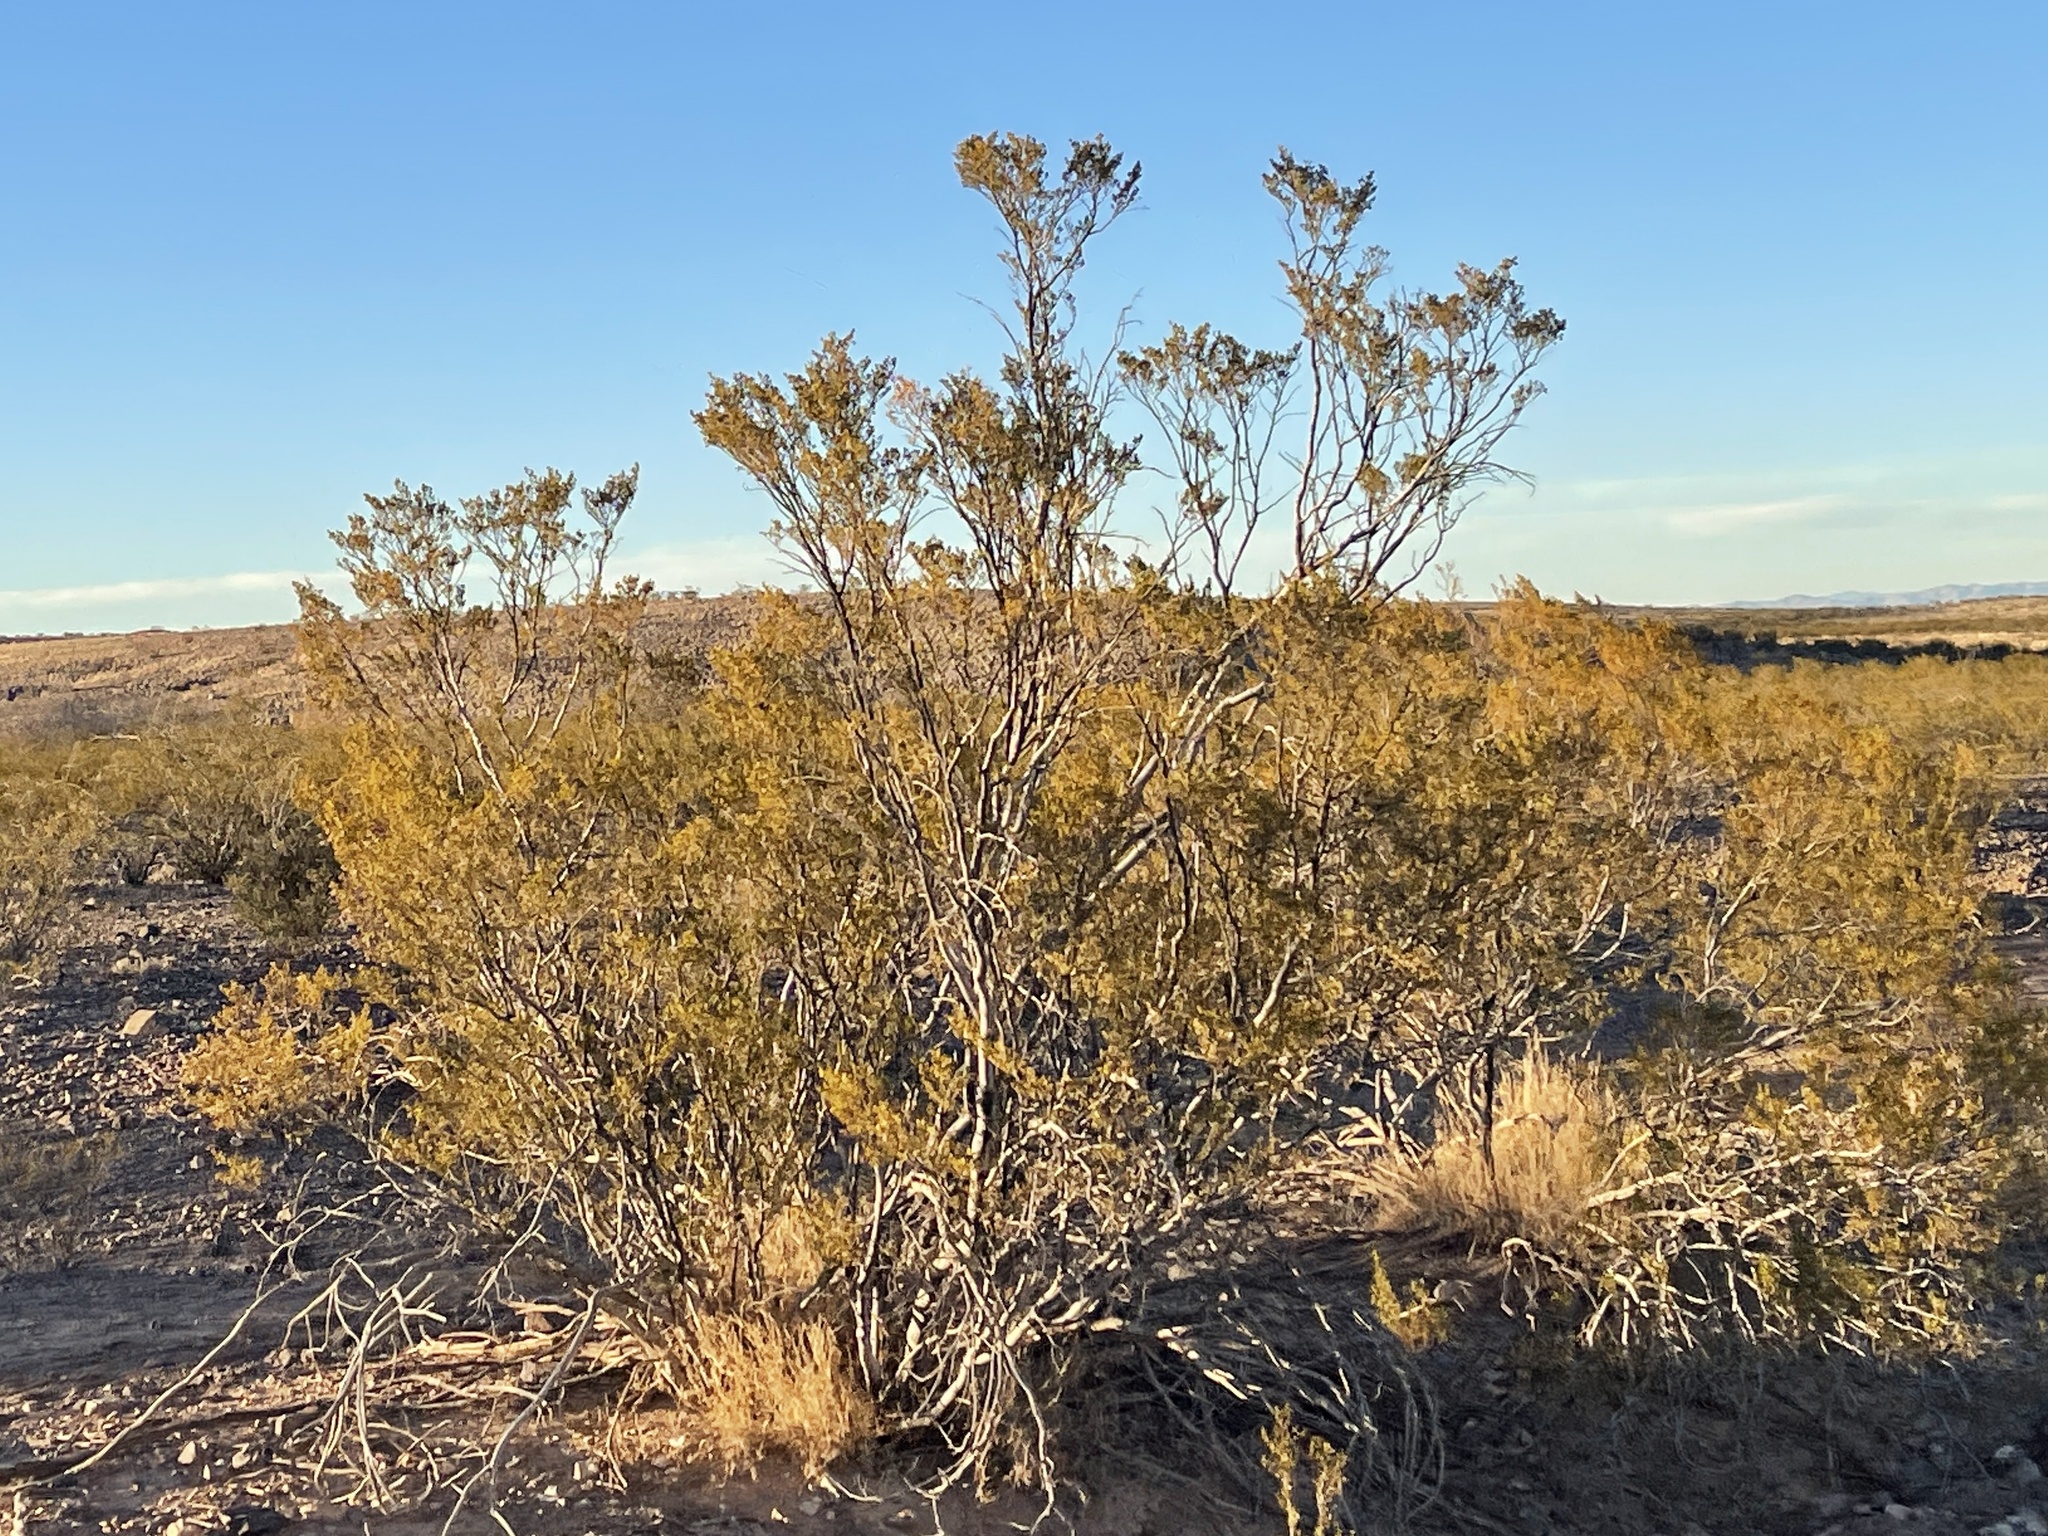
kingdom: Plantae
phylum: Tracheophyta
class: Magnoliopsida
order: Zygophyllales
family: Zygophyllaceae
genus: Larrea
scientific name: Larrea tridentata
